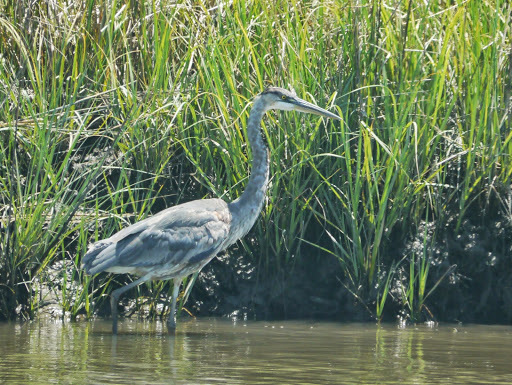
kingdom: Animalia
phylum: Chordata
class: Aves
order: Pelecaniformes
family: Ardeidae
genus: Ardea
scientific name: Ardea herodias
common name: Great blue heron
